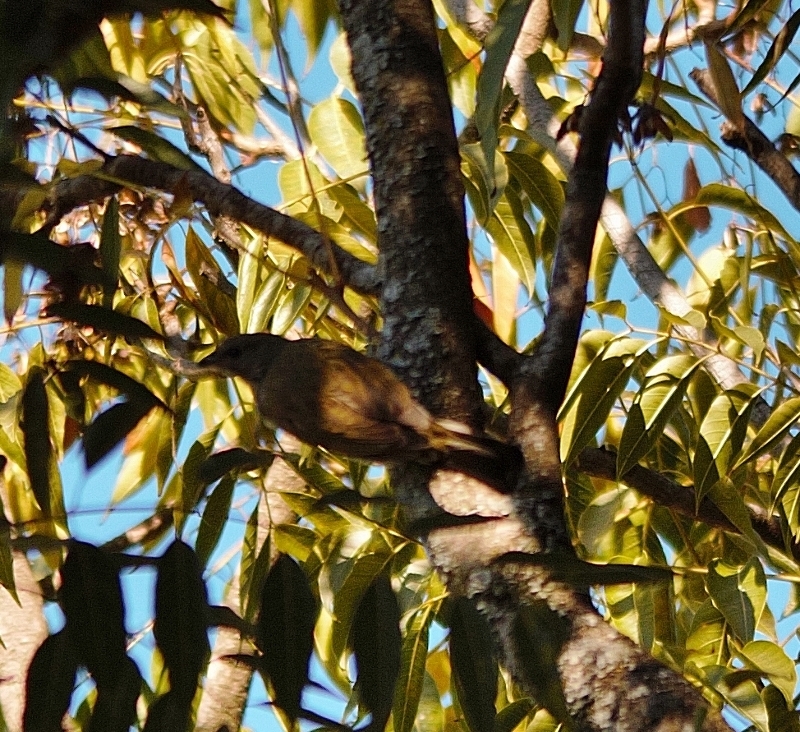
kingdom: Animalia
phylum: Chordata
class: Aves
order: Piciformes
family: Indicatoridae
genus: Indicator
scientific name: Indicator minor
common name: Lesser honeyguide
